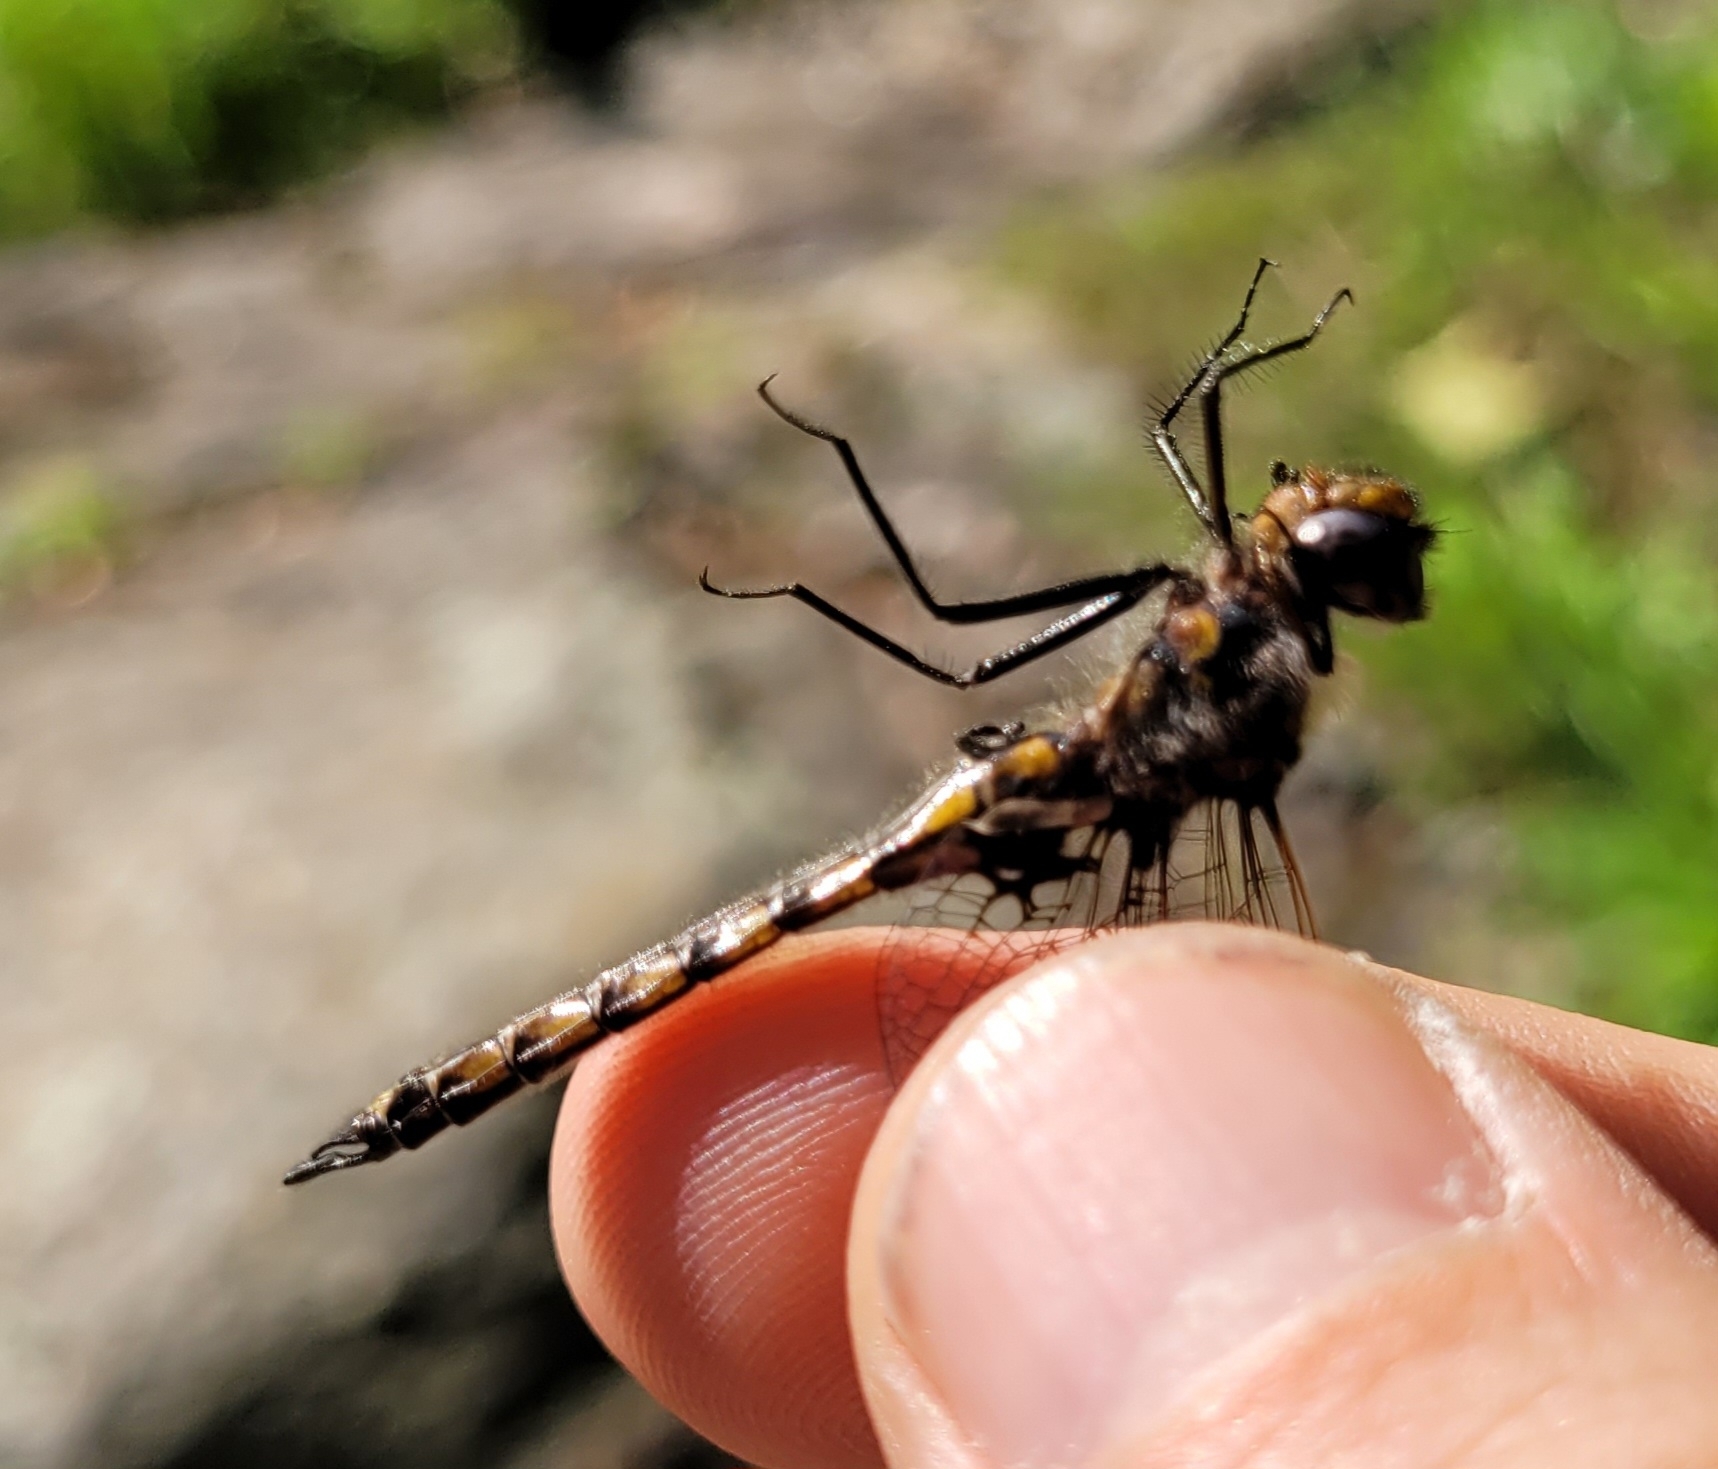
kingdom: Animalia
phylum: Arthropoda
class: Insecta
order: Odonata
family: Corduliidae
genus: Epitheca
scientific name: Epitheca cynosura
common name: Common baskettail
